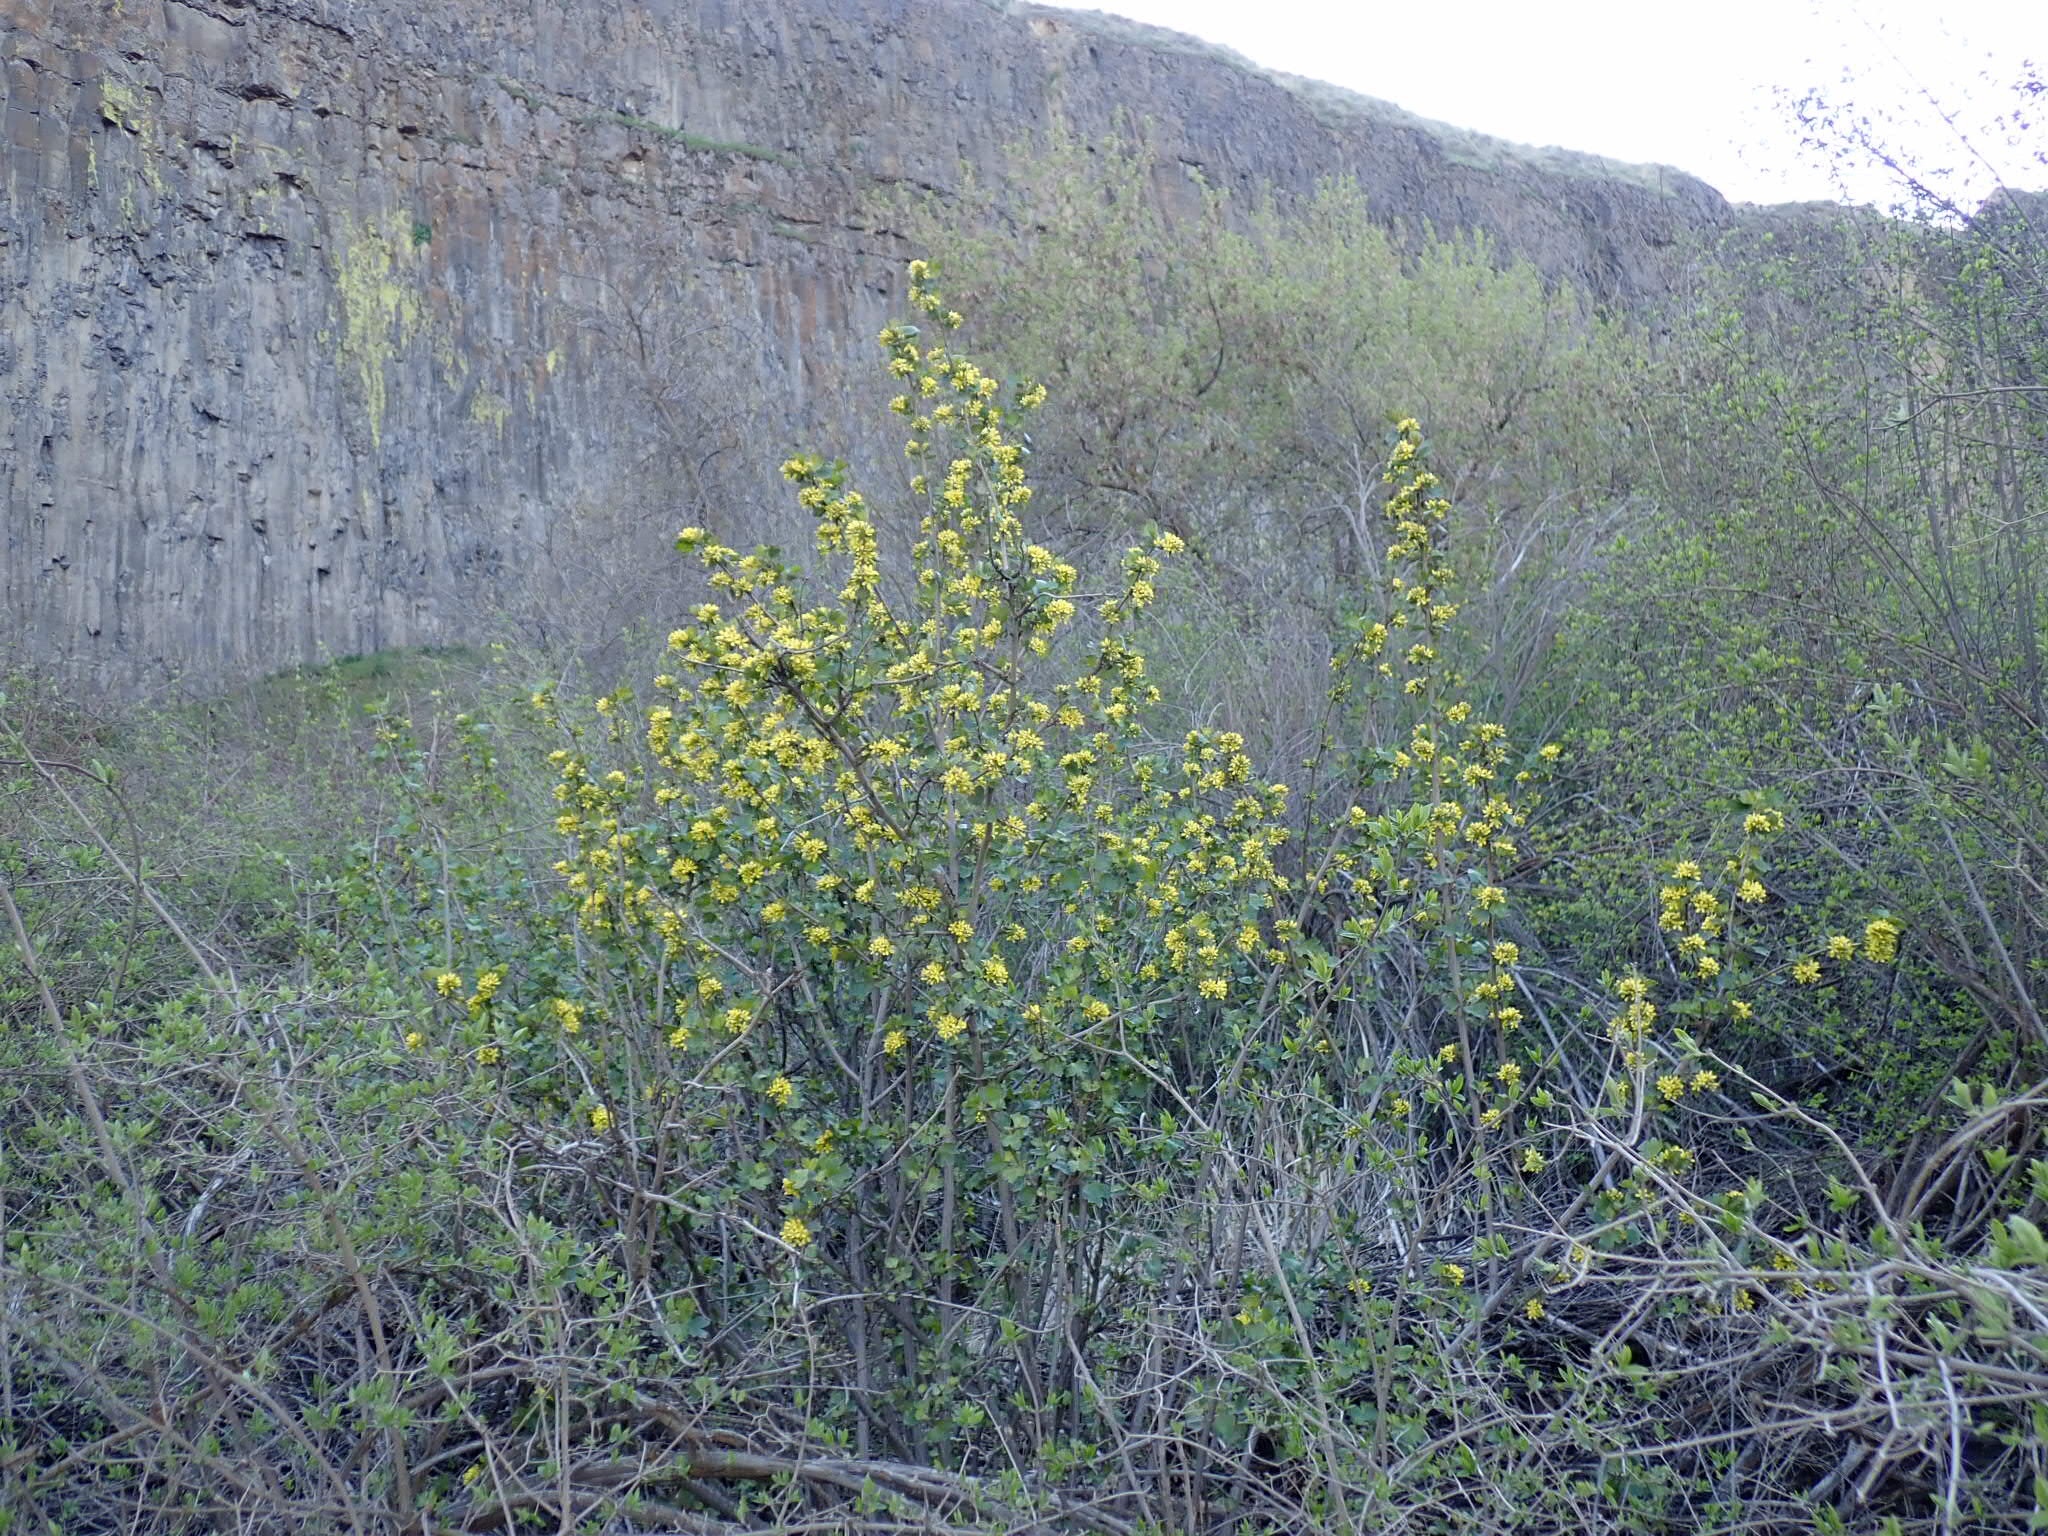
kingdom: Plantae
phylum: Tracheophyta
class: Magnoliopsida
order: Saxifragales
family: Grossulariaceae
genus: Ribes
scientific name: Ribes aureum
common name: Golden currant
